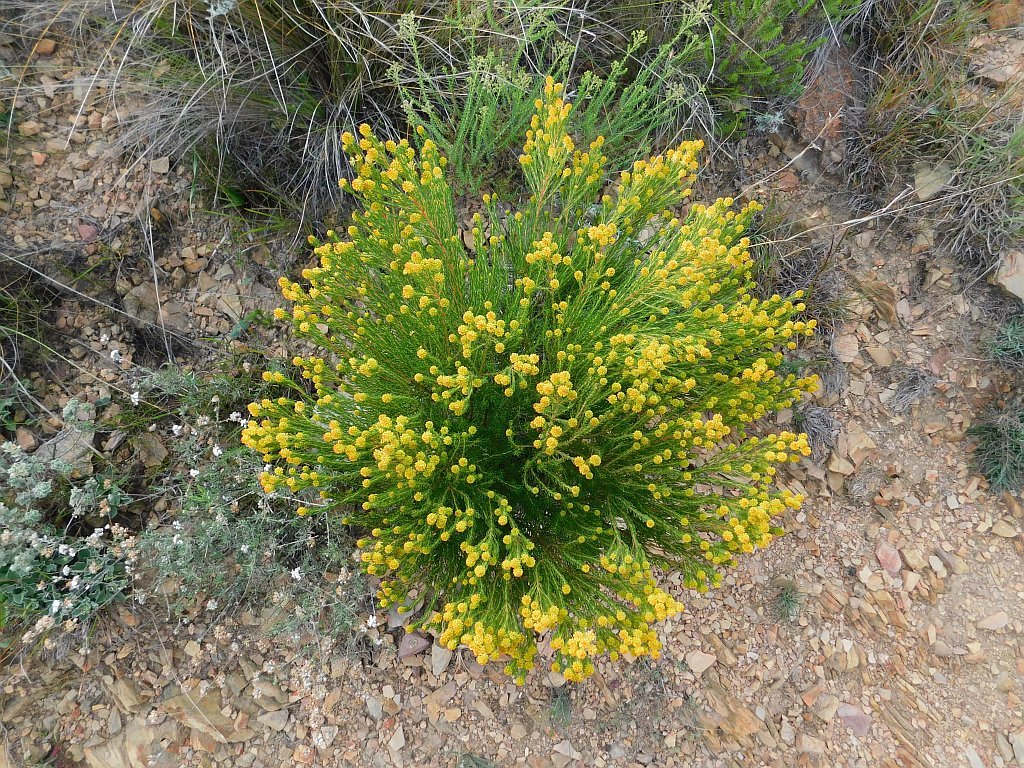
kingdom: Plantae
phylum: Tracheophyta
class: Magnoliopsida
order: Proteales
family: Proteaceae
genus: Leucadendron
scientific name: Leucadendron teretifolium
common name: Needle-leaf conebush
